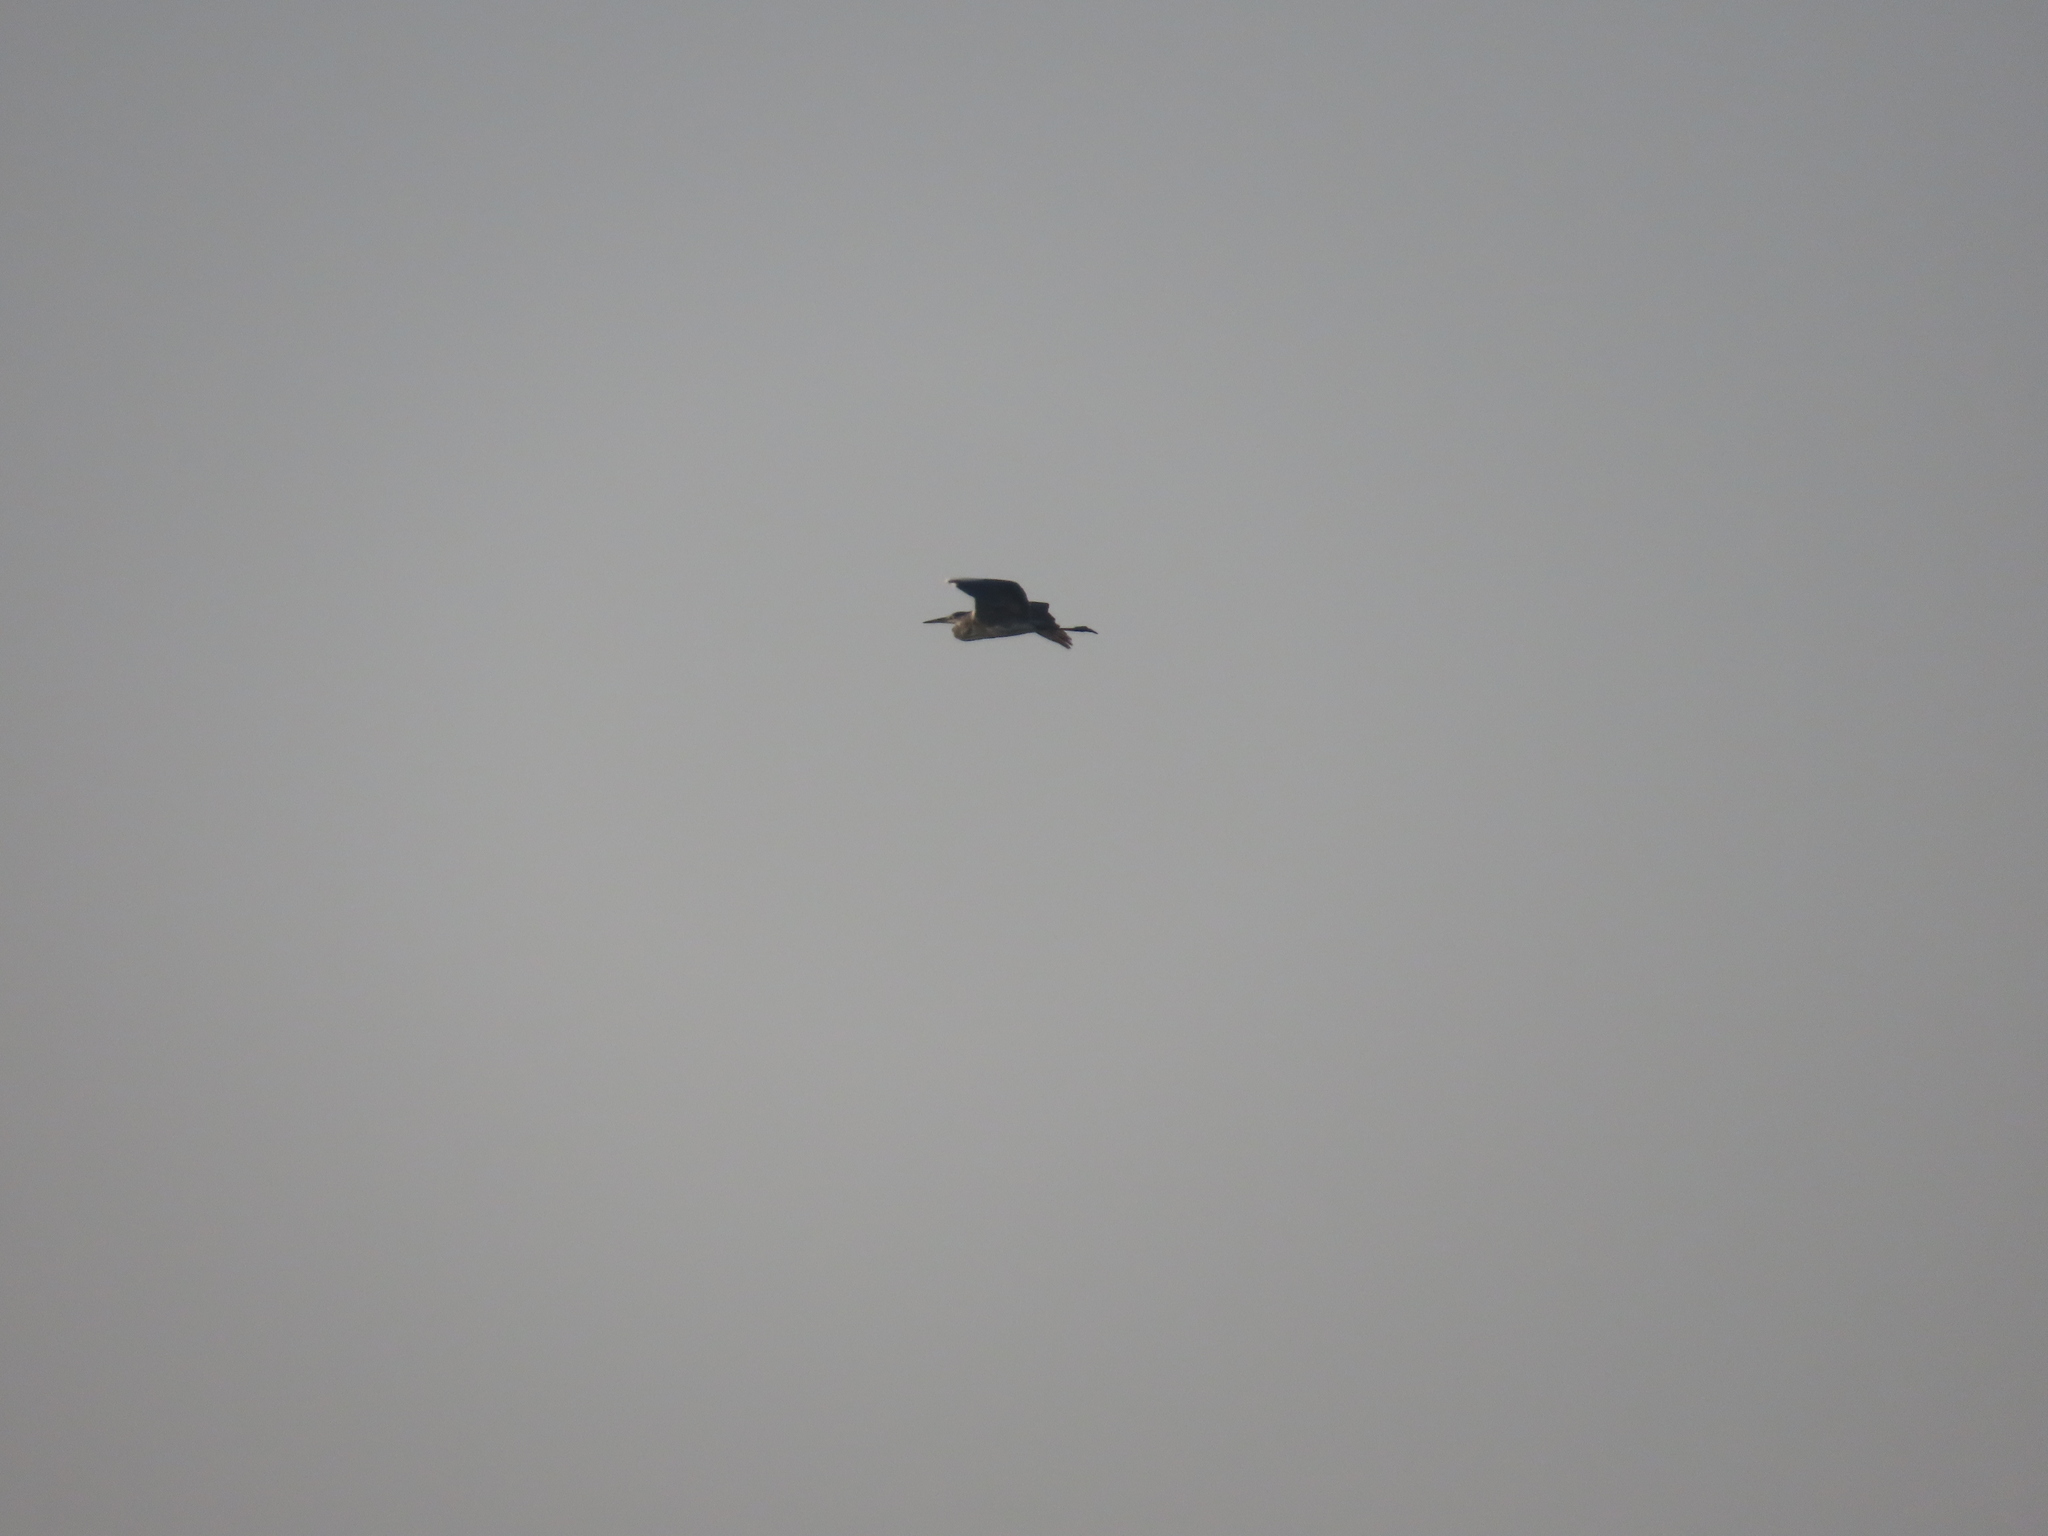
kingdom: Animalia
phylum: Chordata
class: Aves
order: Pelecaniformes
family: Ardeidae
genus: Ardea
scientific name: Ardea cinerea
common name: Grey heron
